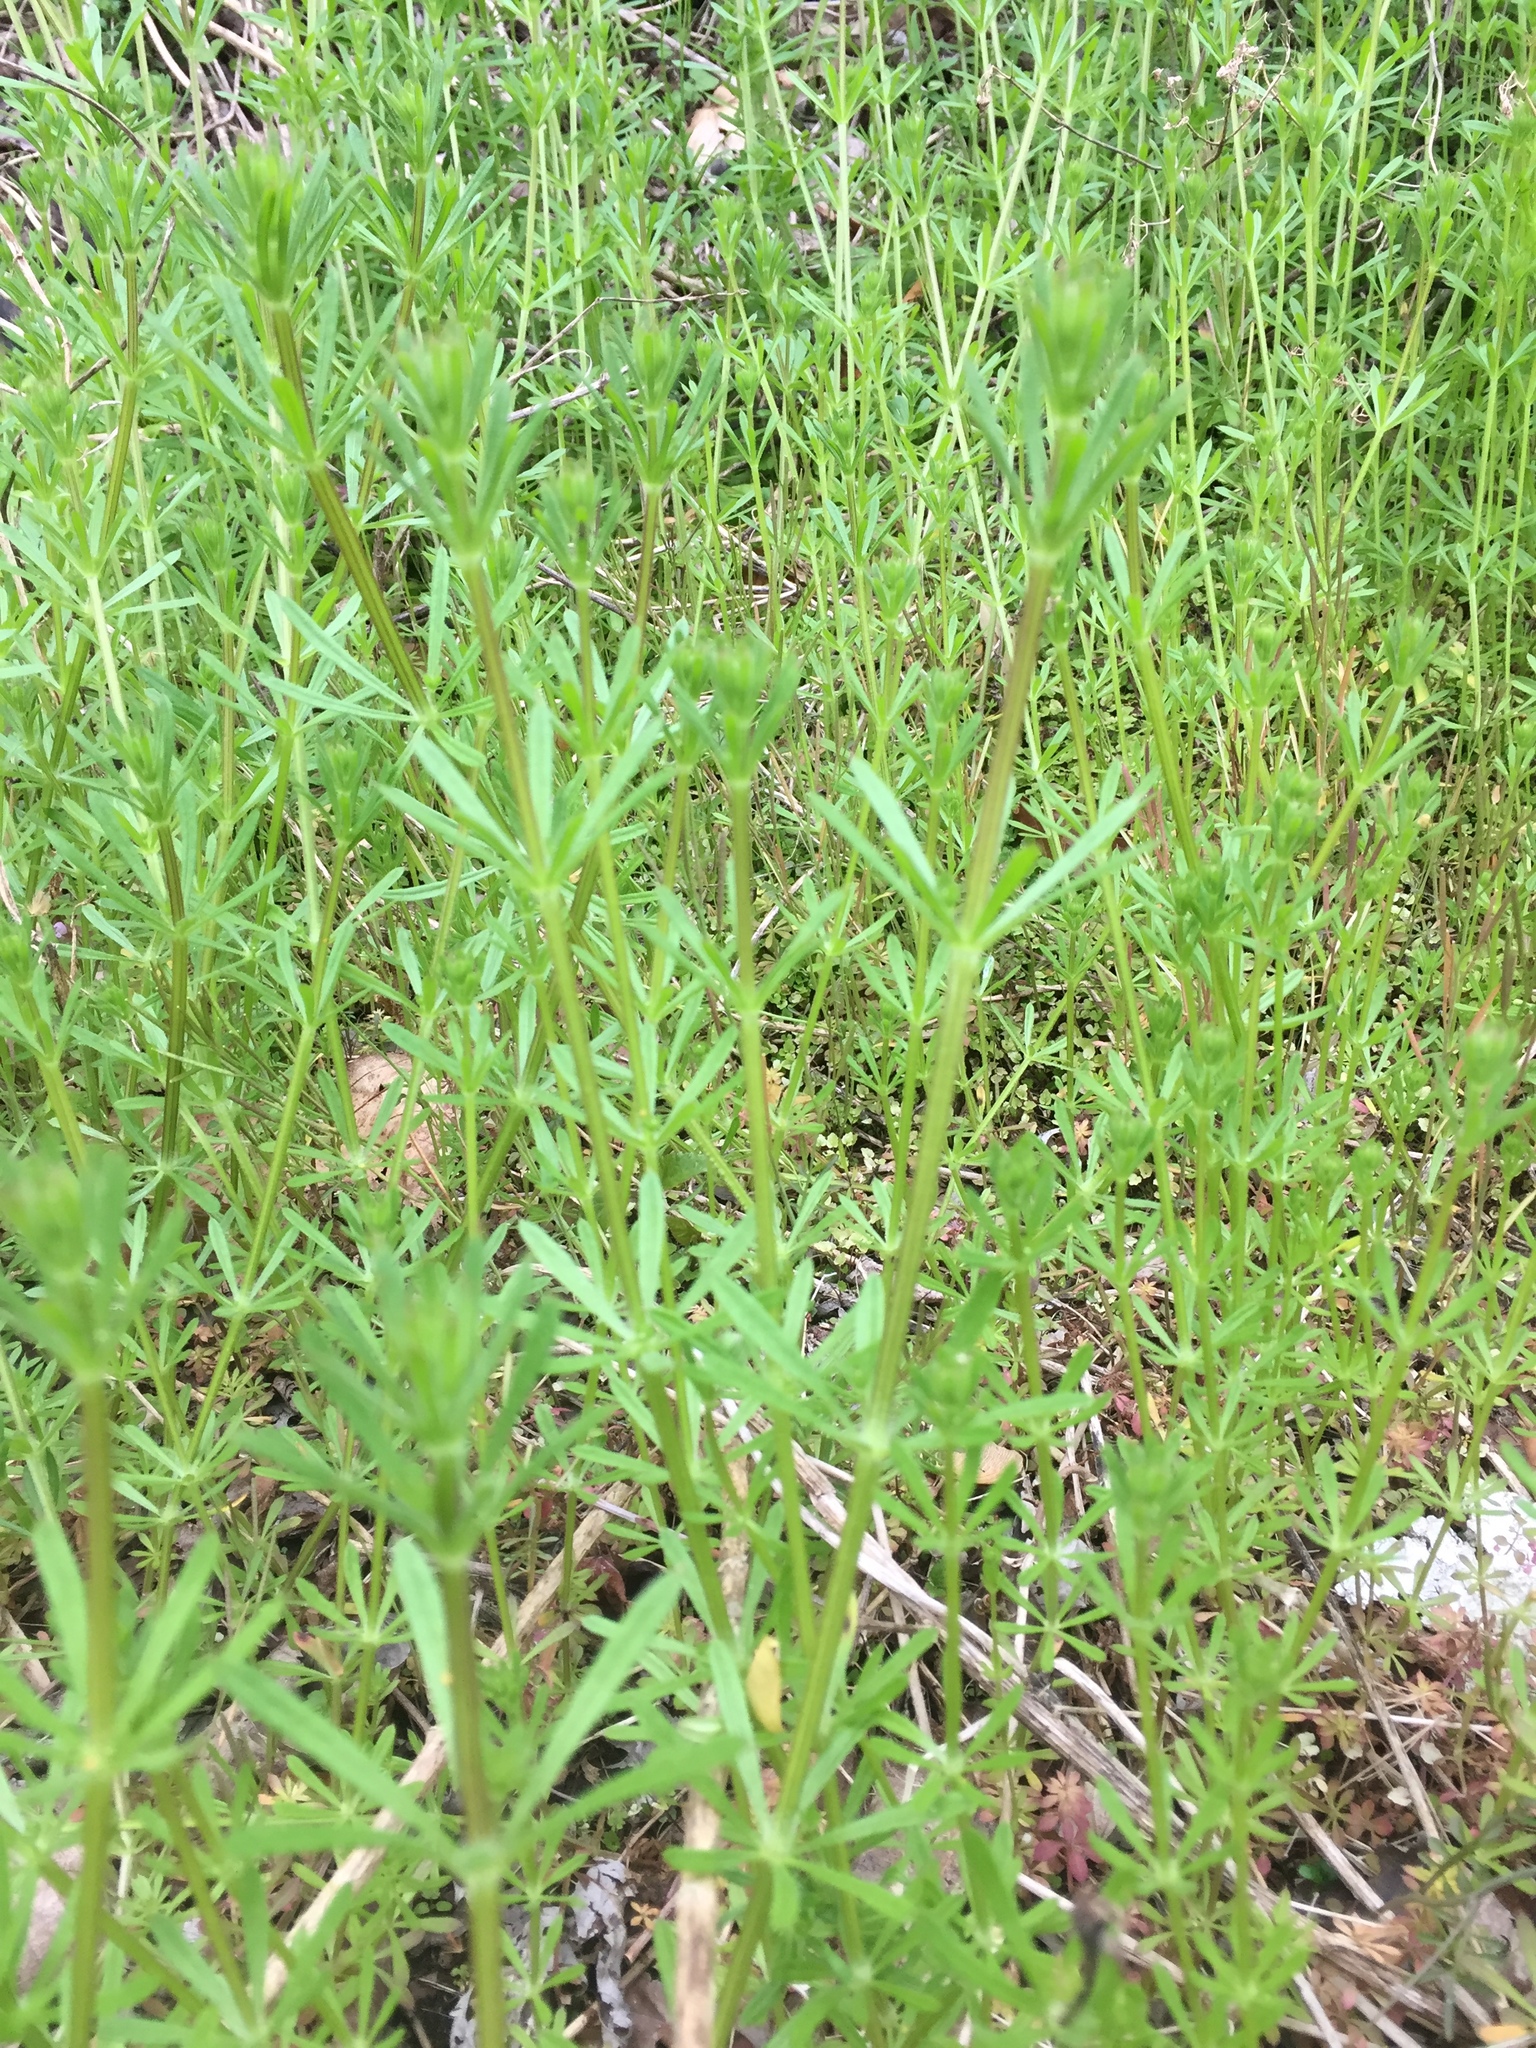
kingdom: Plantae
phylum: Tracheophyta
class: Magnoliopsida
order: Gentianales
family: Rubiaceae
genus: Galium
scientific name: Galium aparine
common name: Cleavers
